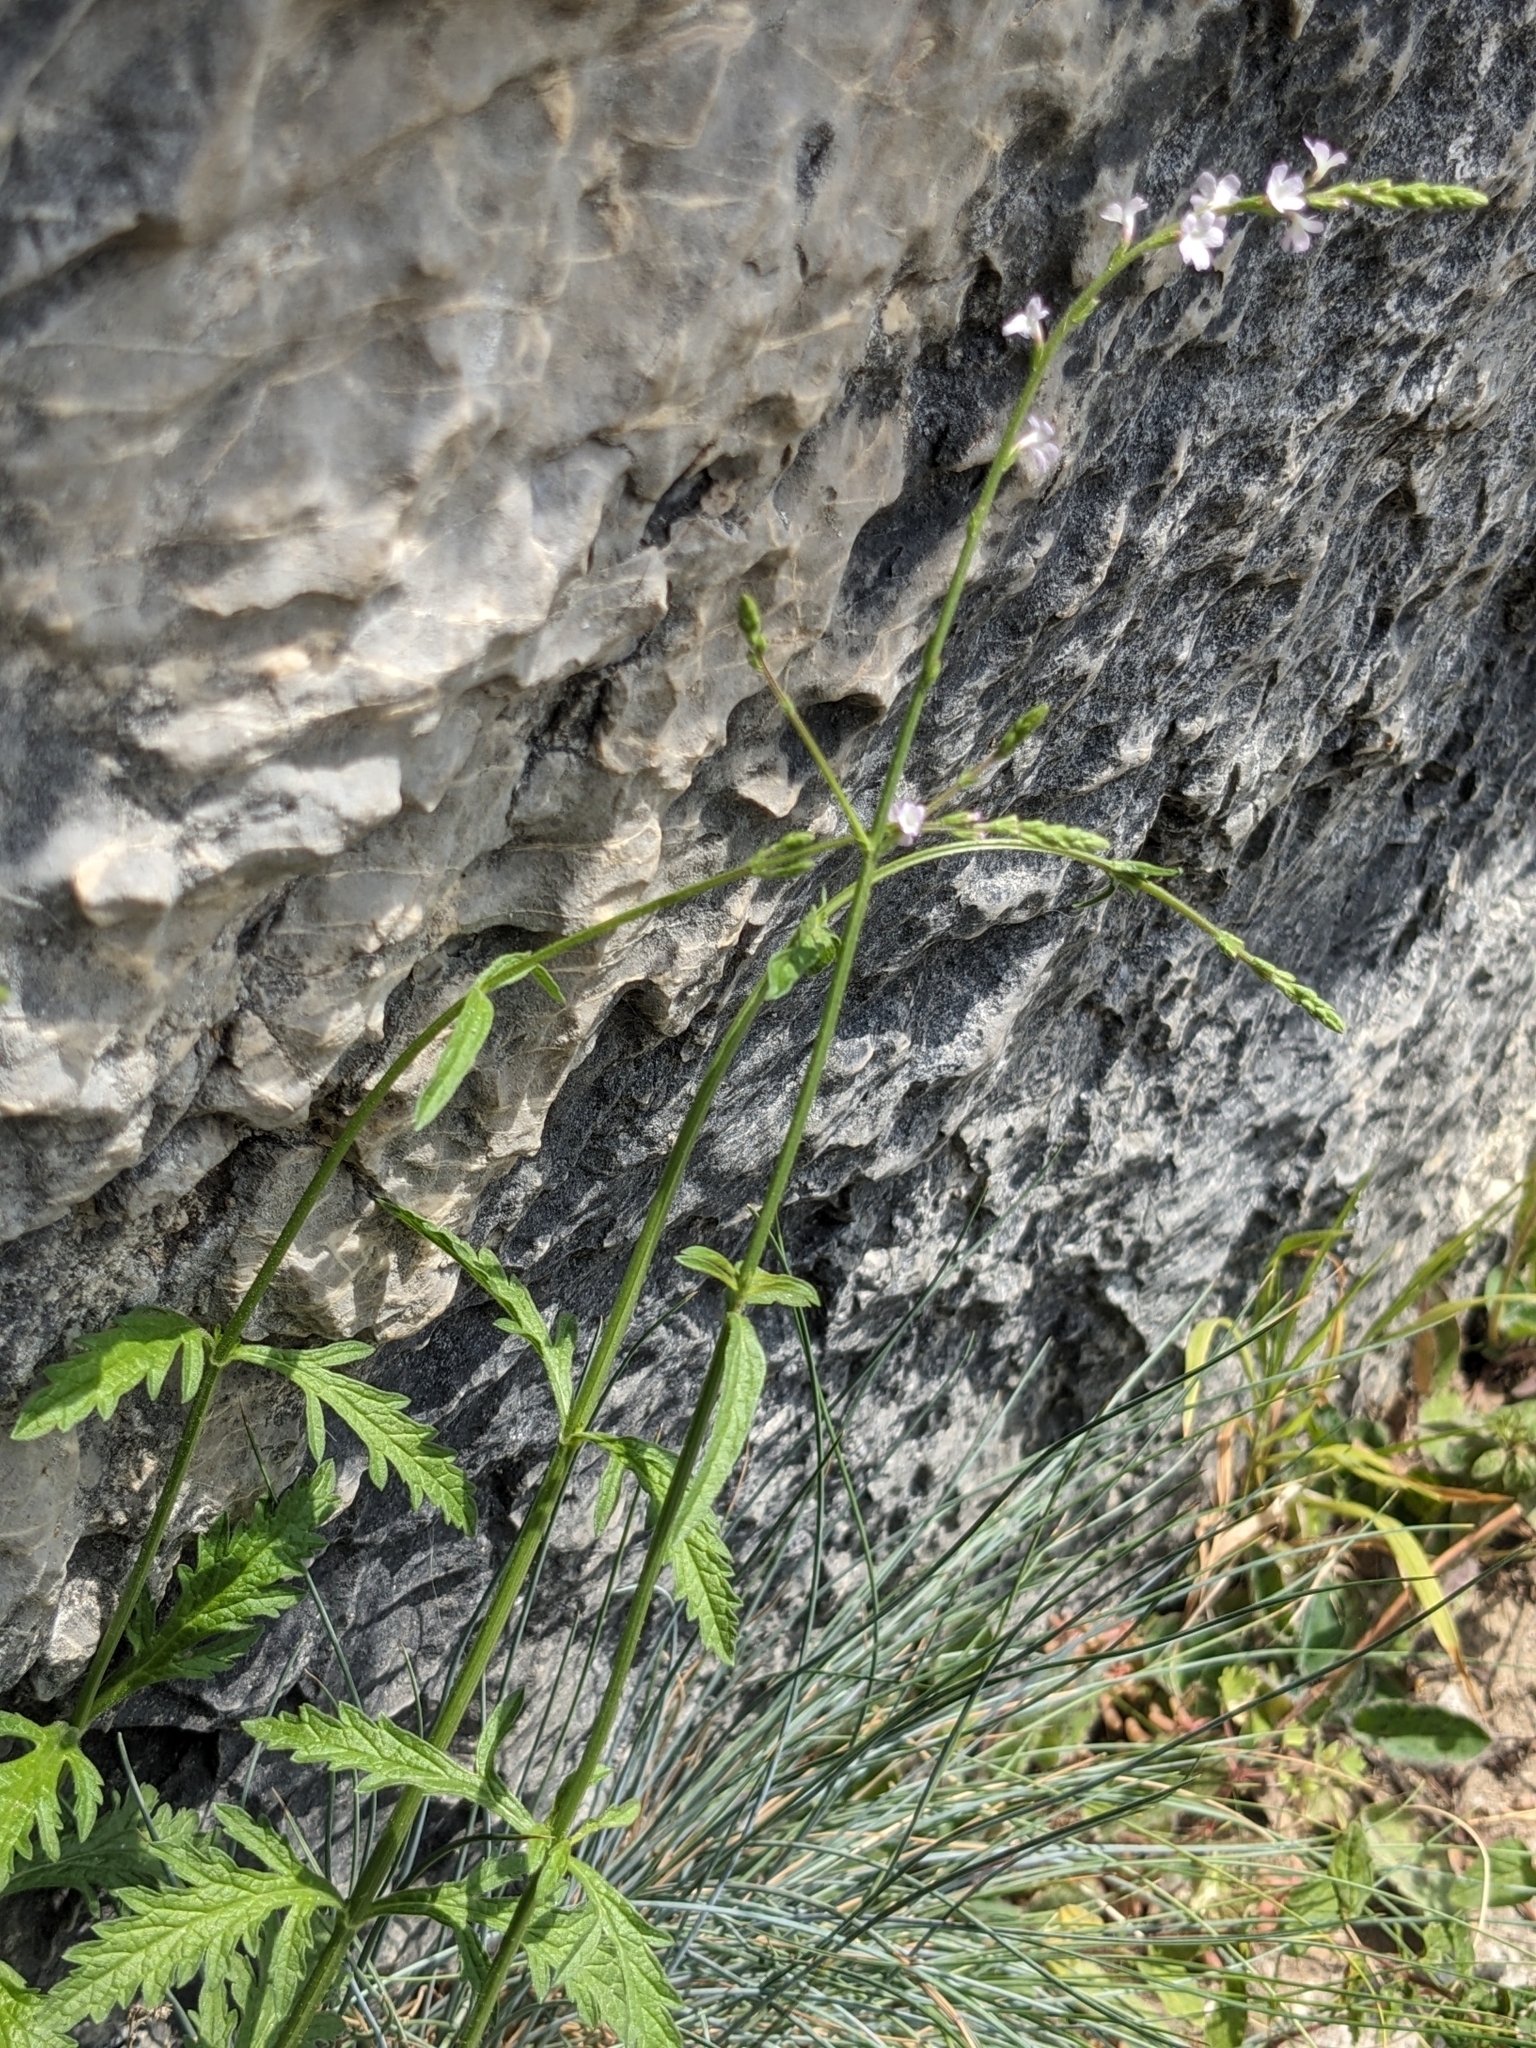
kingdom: Plantae
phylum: Tracheophyta
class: Magnoliopsida
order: Lamiales
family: Verbenaceae
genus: Verbena
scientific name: Verbena officinalis
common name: Vervain
